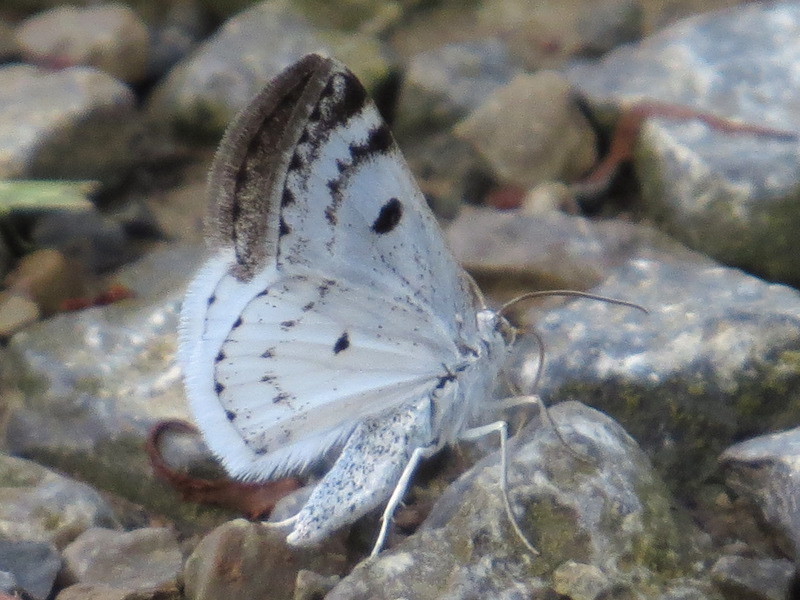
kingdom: Animalia
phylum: Arthropoda
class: Insecta
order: Lepidoptera
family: Geometridae
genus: Lomographa
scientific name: Lomographa semiclarata
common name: Bluish spring moth
